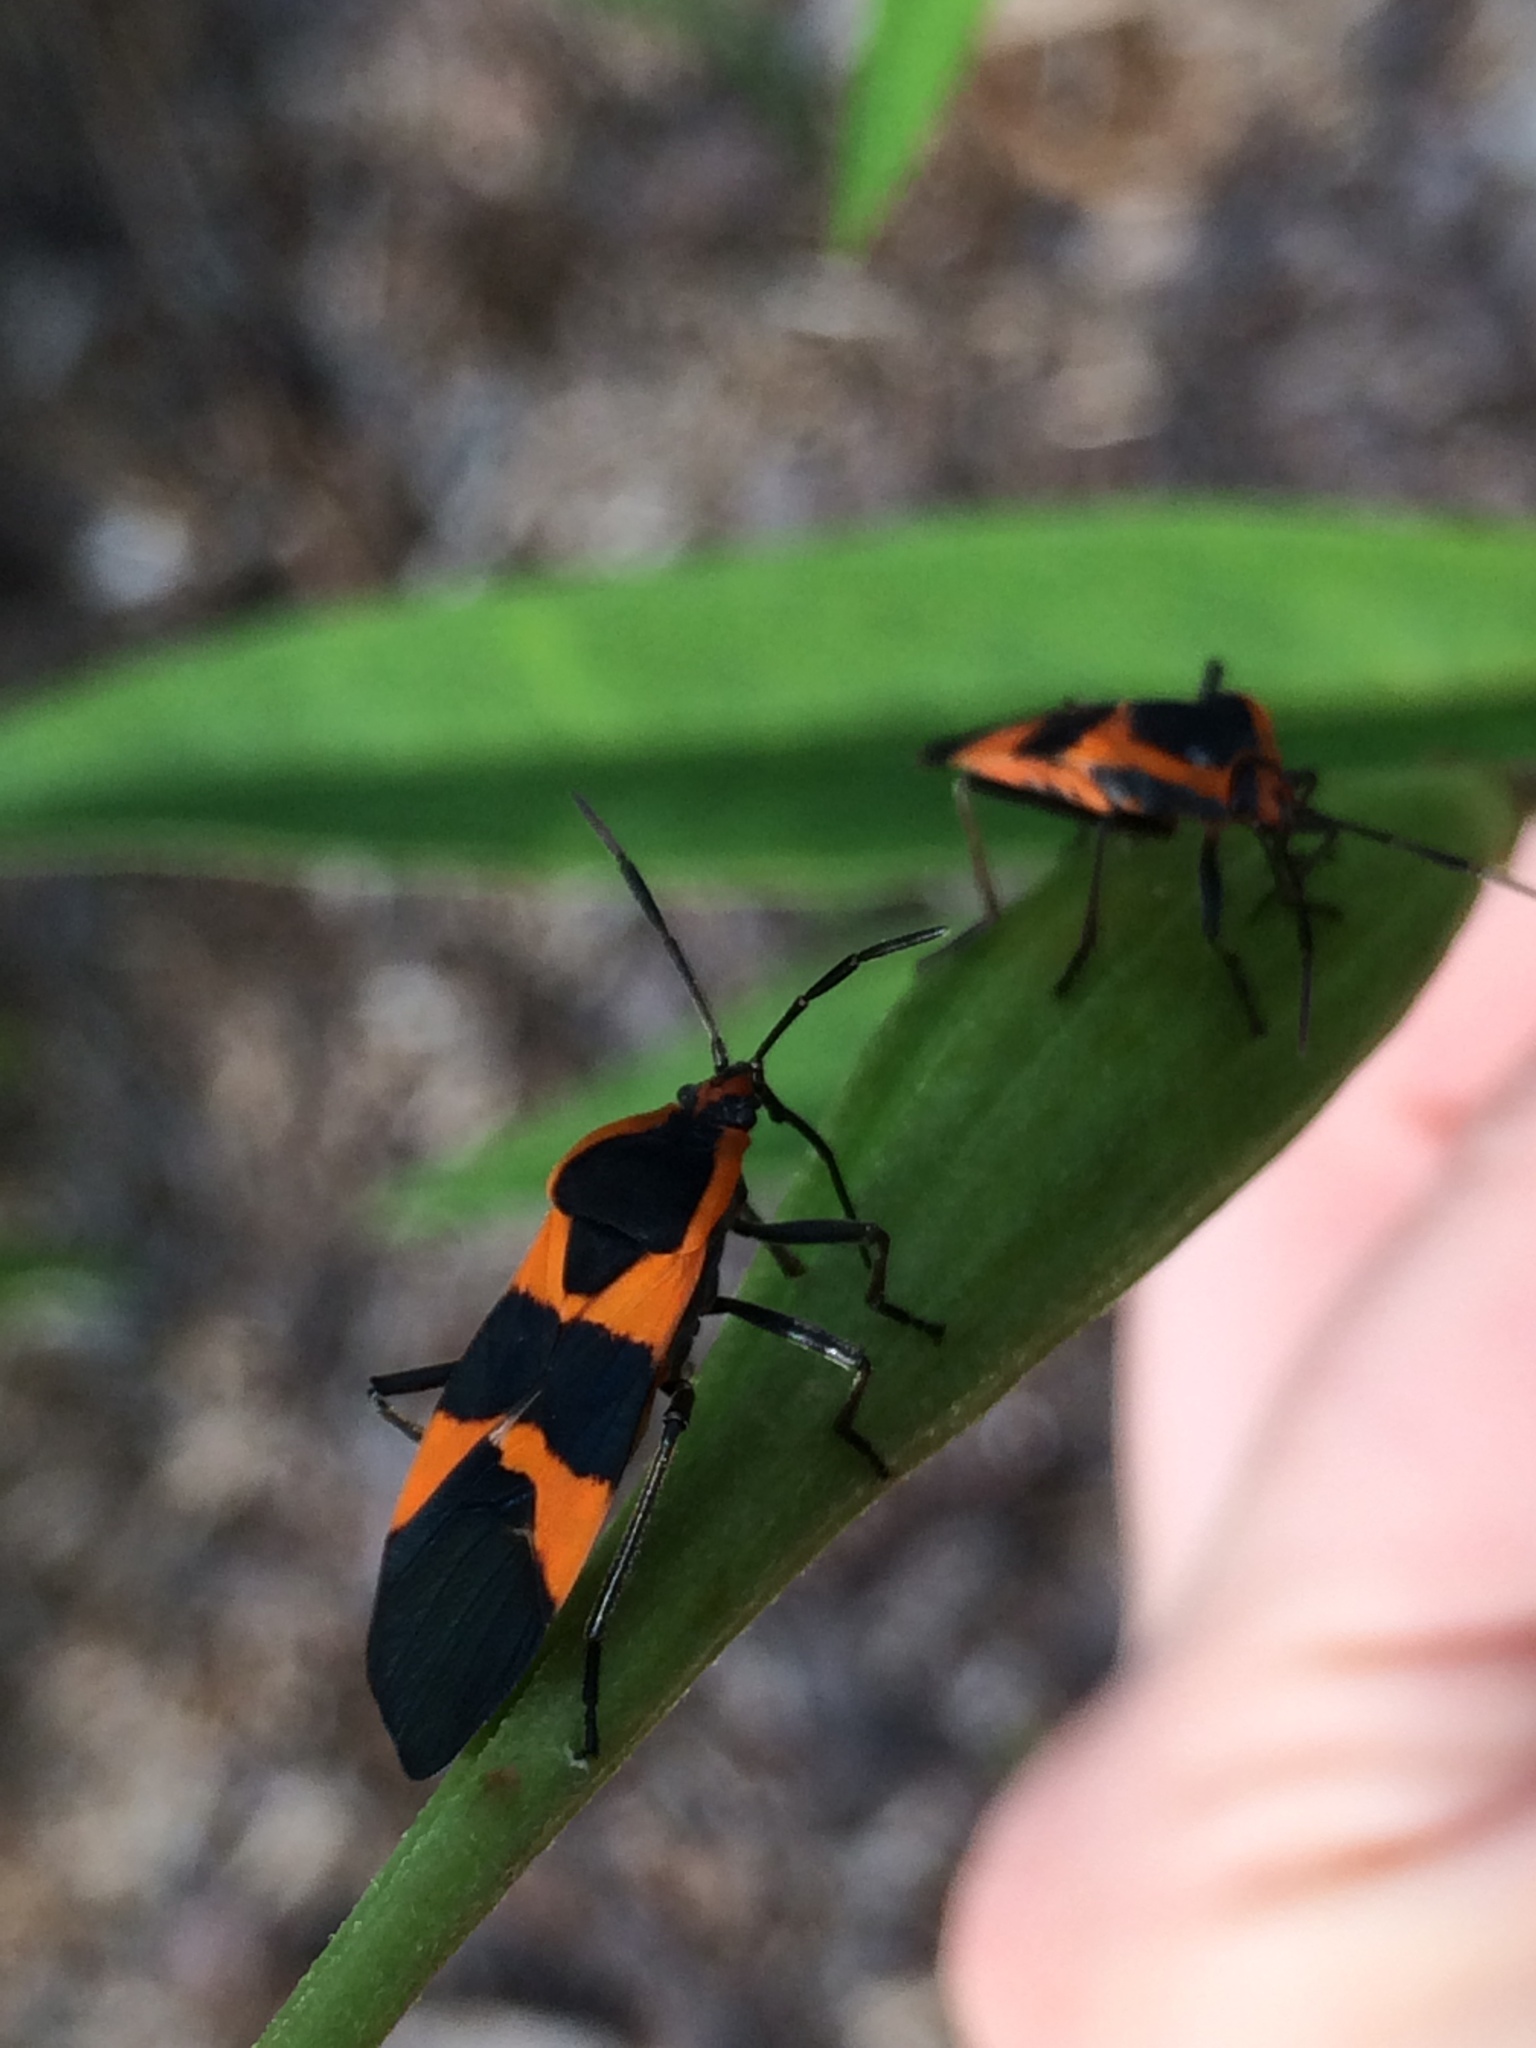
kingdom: Animalia
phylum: Arthropoda
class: Insecta
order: Hemiptera
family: Lygaeidae
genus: Oncopeltus
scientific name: Oncopeltus fasciatus
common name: Large milkweed bug
